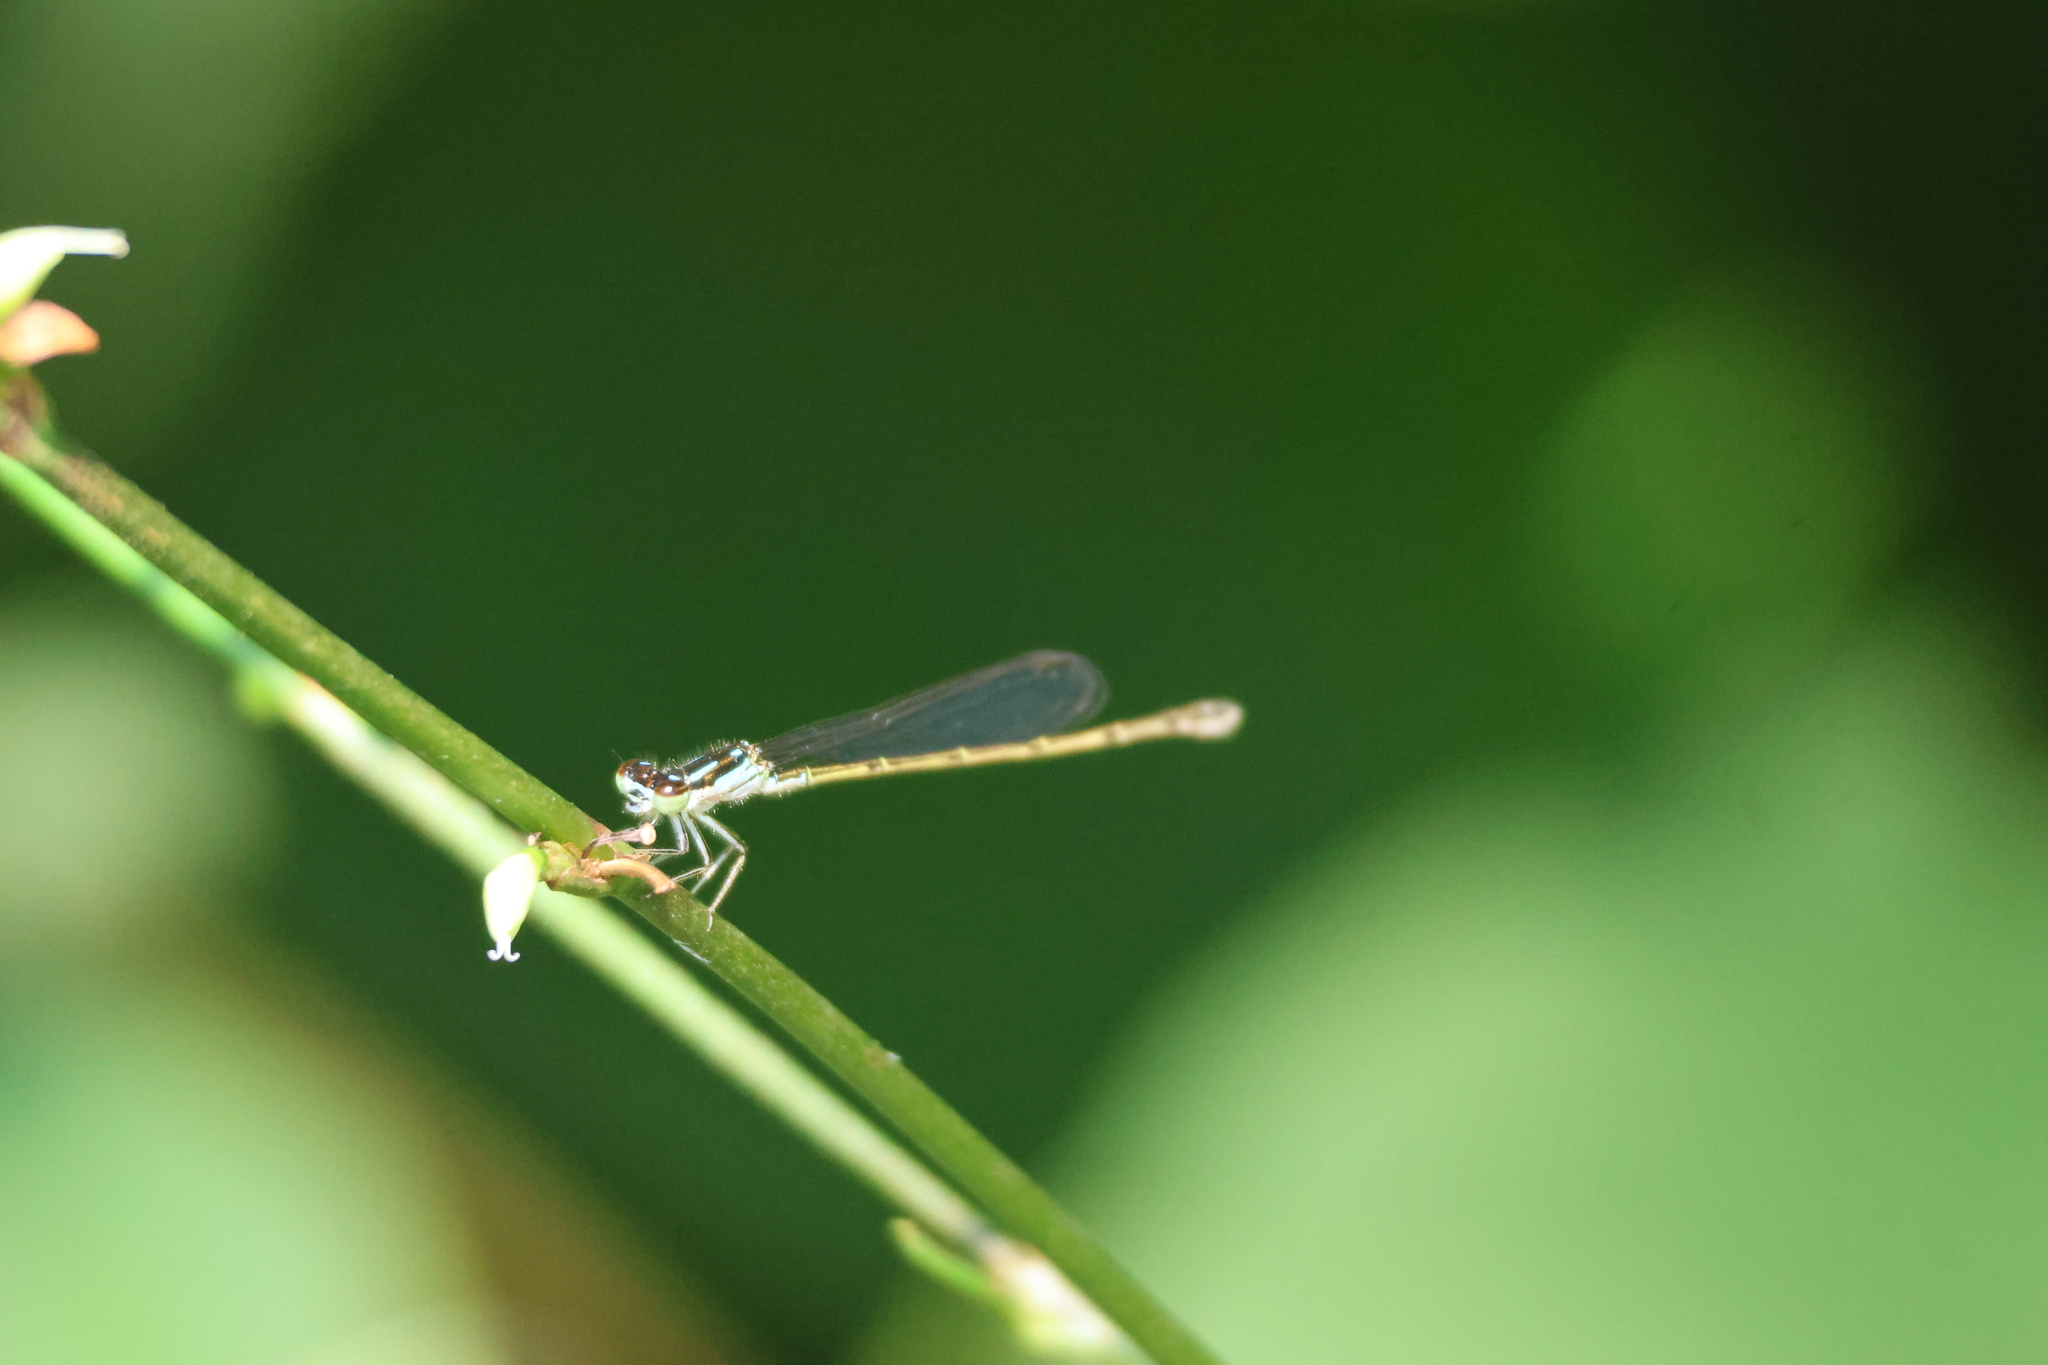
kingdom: Animalia
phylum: Arthropoda
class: Insecta
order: Odonata
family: Coenagrionidae
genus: Ischnura
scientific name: Ischnura posita
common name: Fragile forktail
